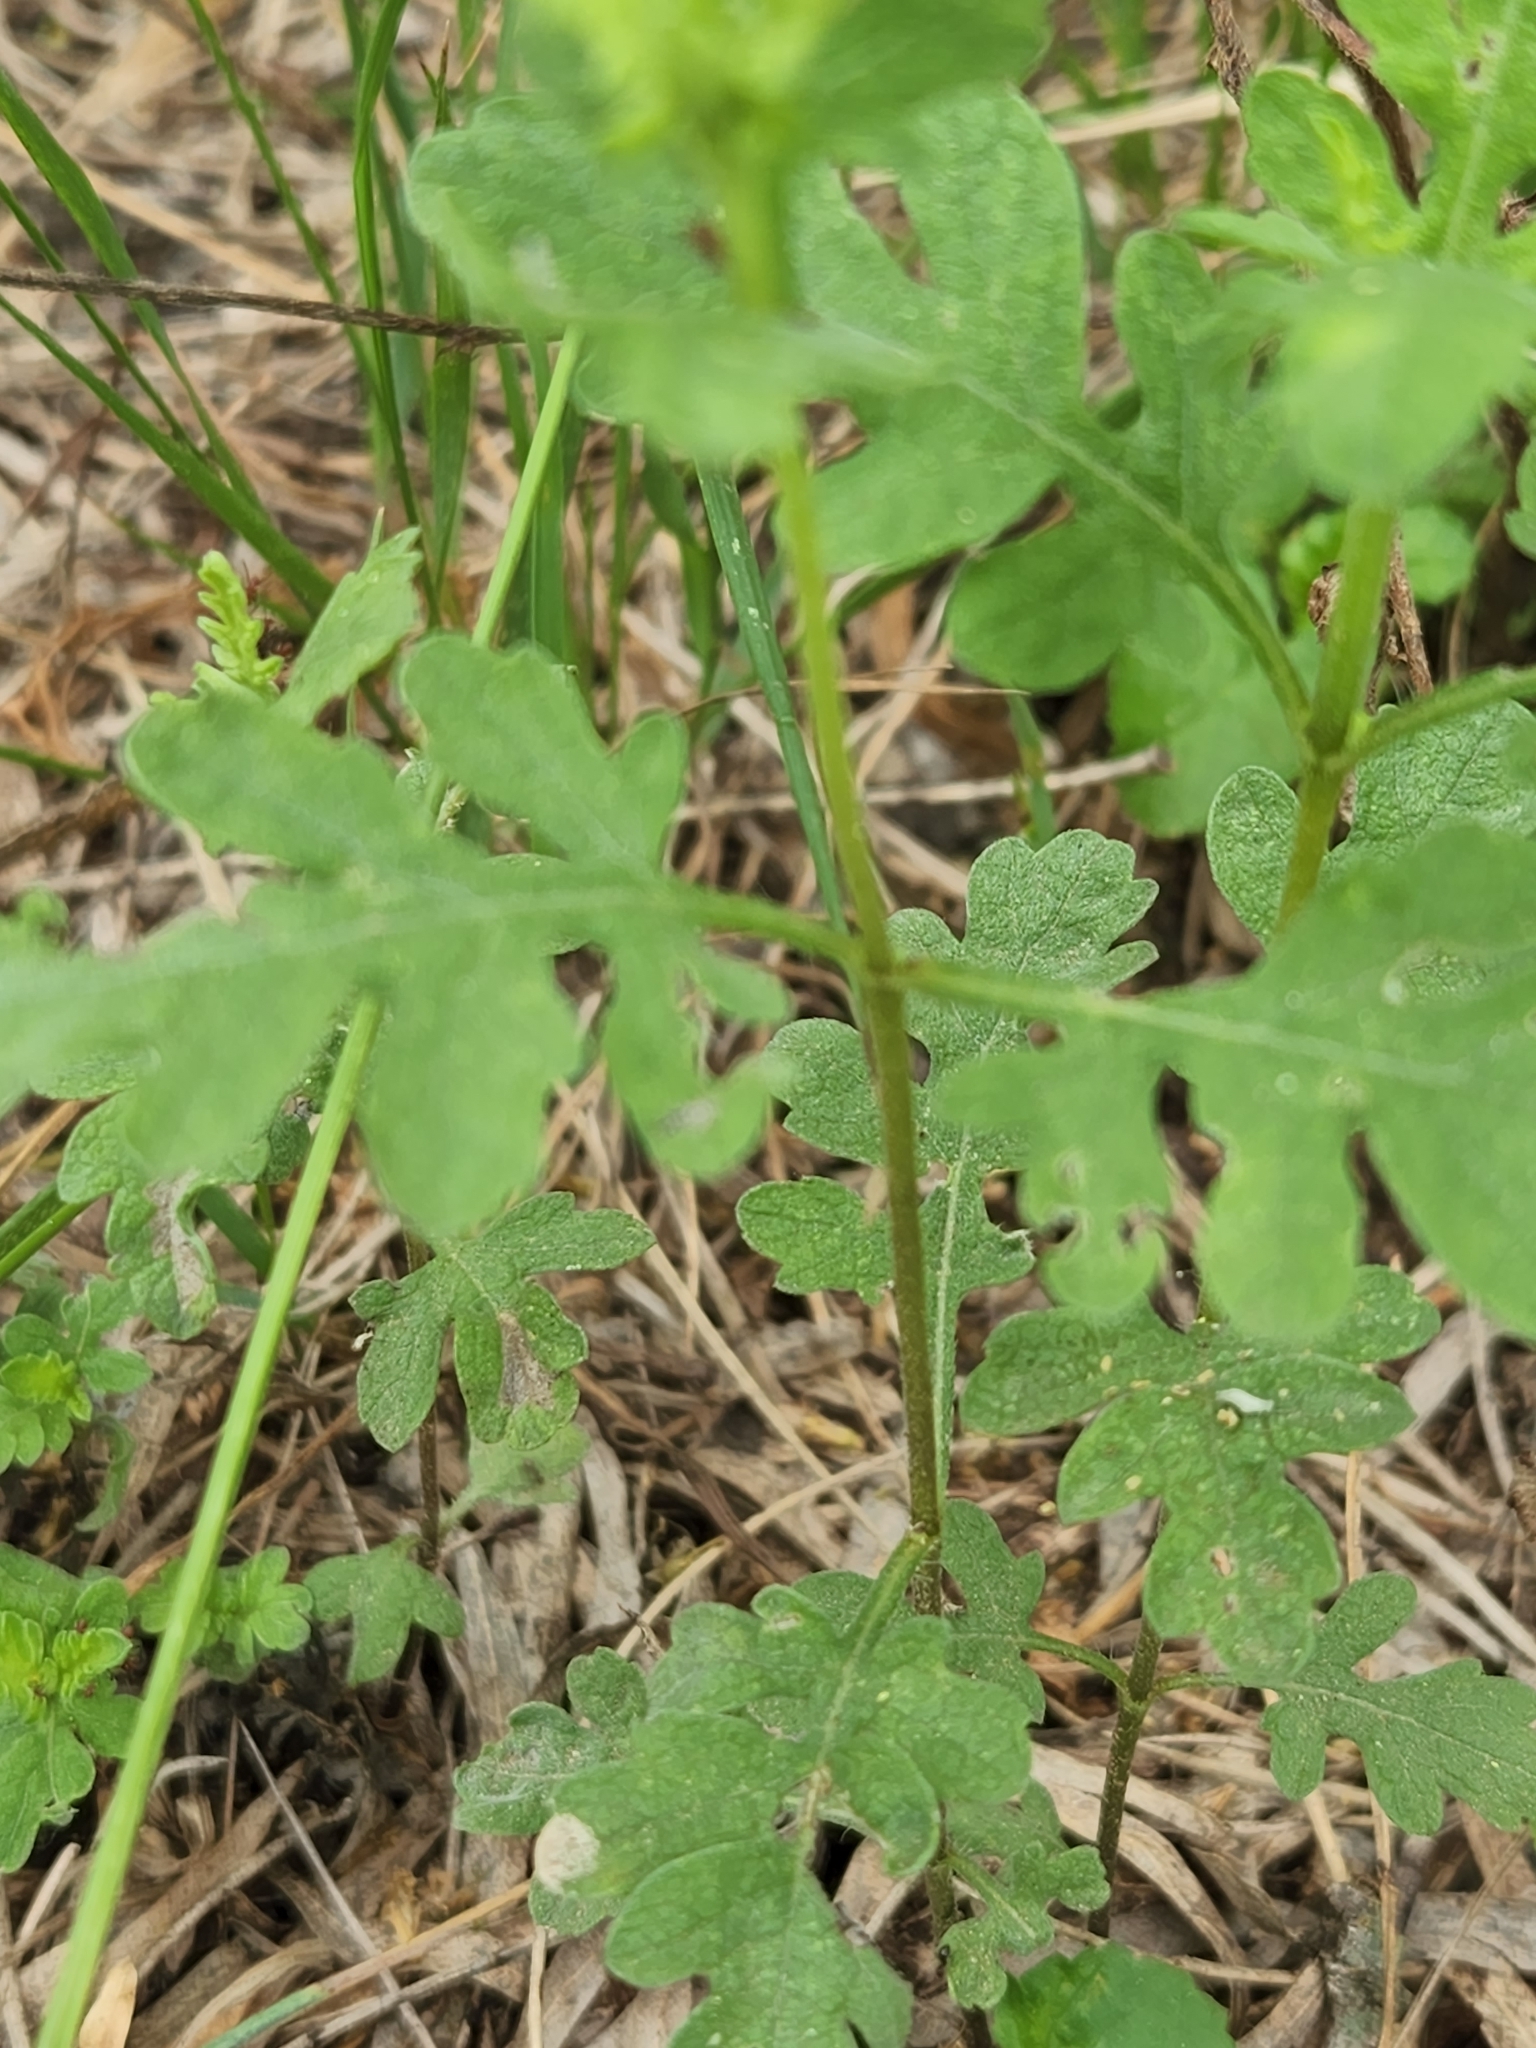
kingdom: Plantae
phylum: Tracheophyta
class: Magnoliopsida
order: Asterales
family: Asteraceae
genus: Ambrosia
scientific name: Ambrosia psilostachya
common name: Perennial ragweed
